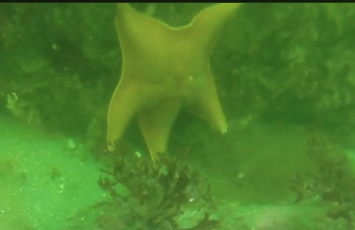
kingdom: Animalia
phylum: Echinodermata
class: Asteroidea
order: Valvatida
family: Asterinidae
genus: Patiria
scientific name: Patiria miniata
